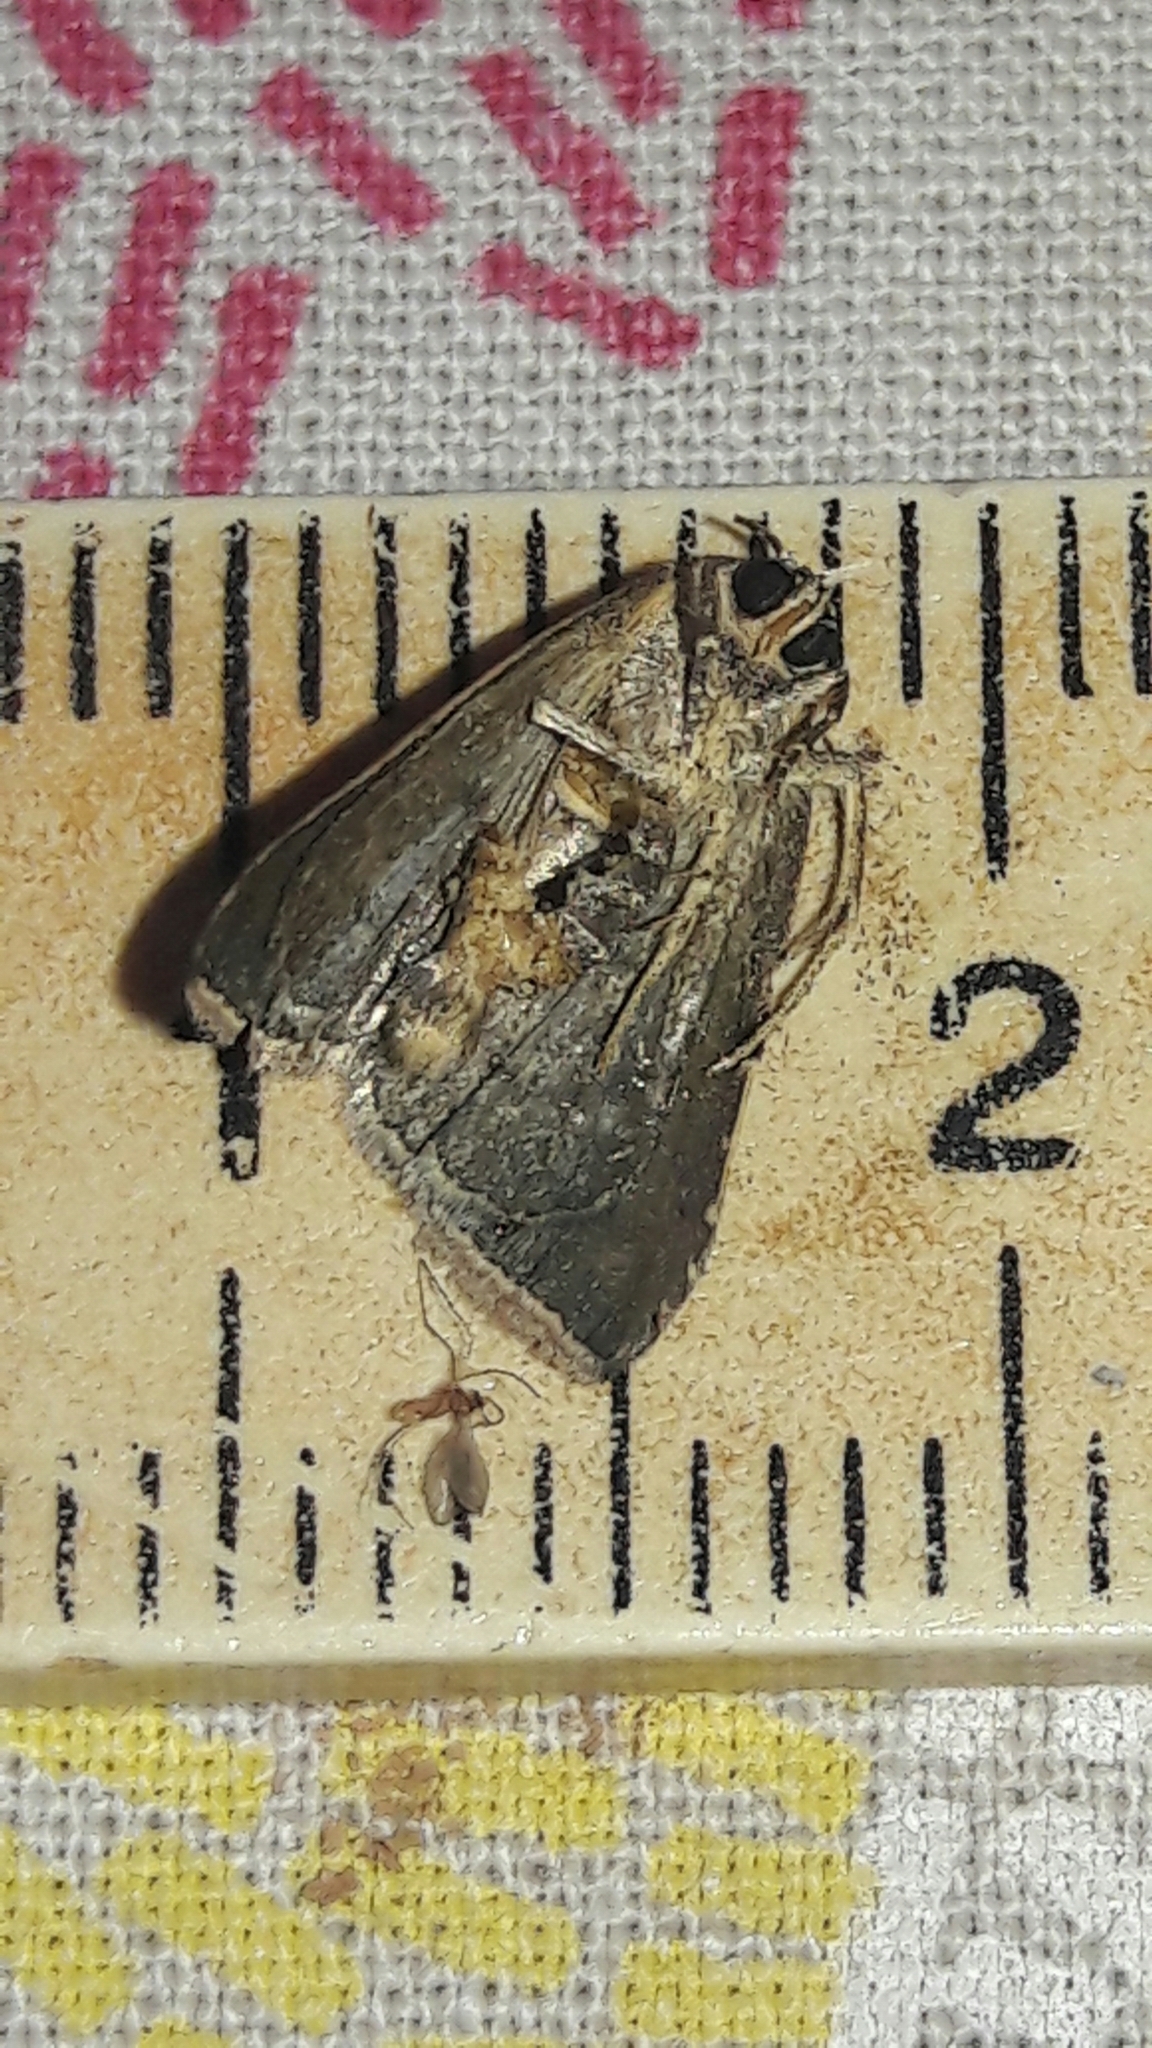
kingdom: Animalia
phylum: Arthropoda
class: Insecta
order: Lepidoptera
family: Noctuidae
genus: Micrathetis
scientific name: Micrathetis canifimbria
